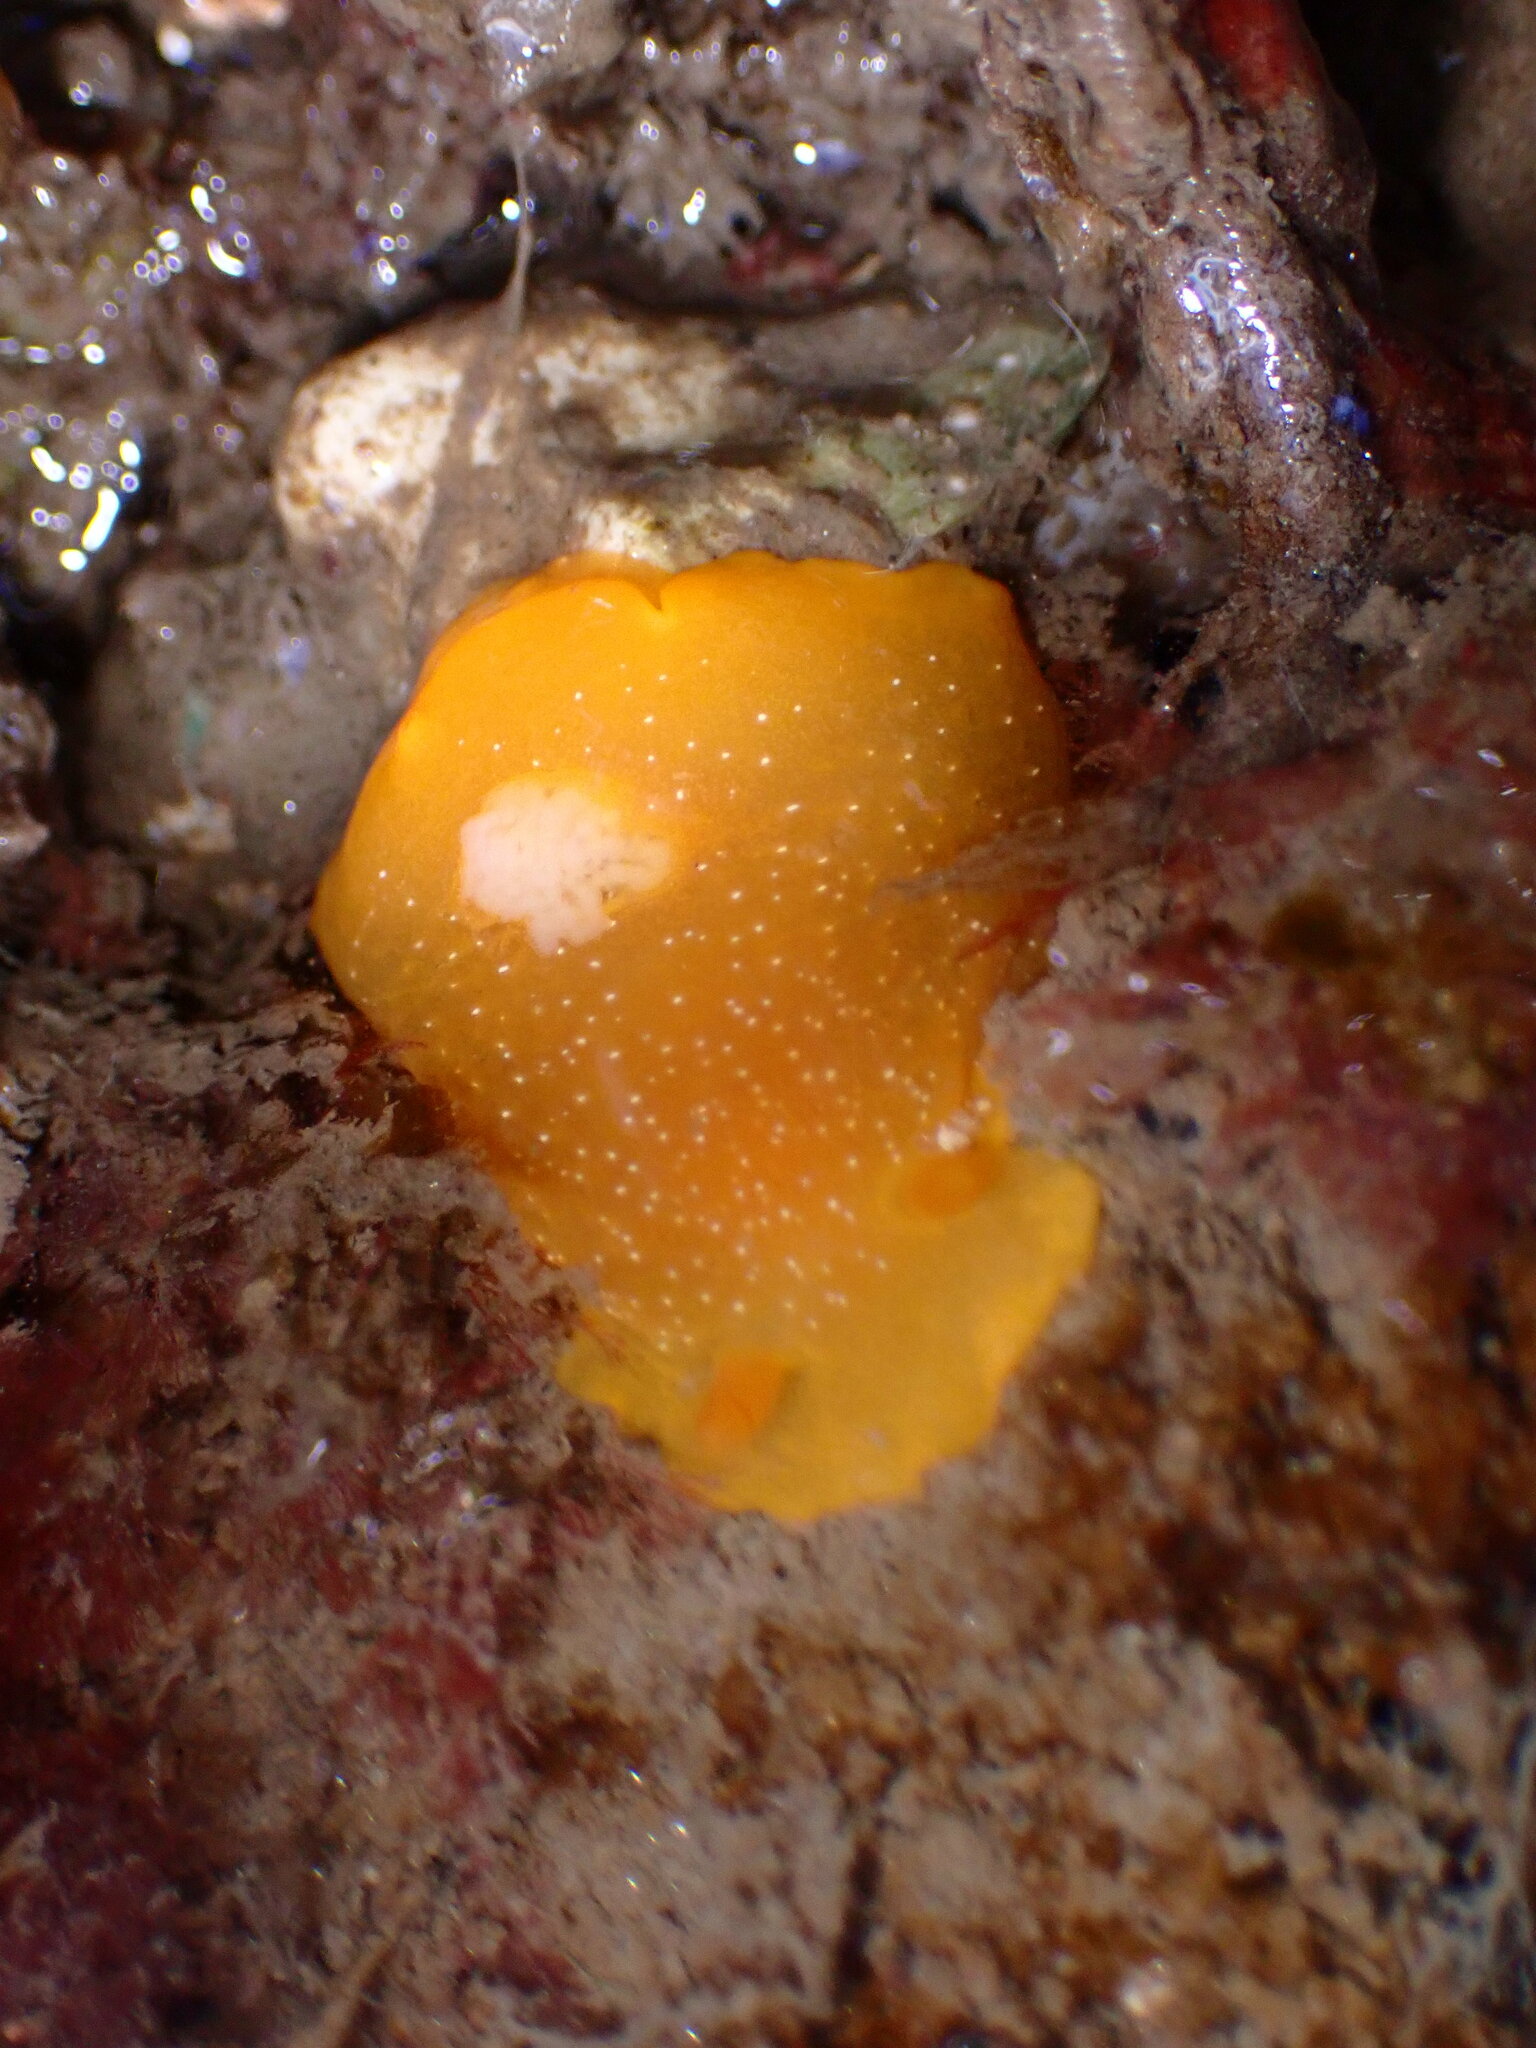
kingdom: Animalia
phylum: Mollusca
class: Gastropoda
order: Nudibranchia
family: Dendrodorididae
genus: Doriopsilla
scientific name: Doriopsilla fulva
